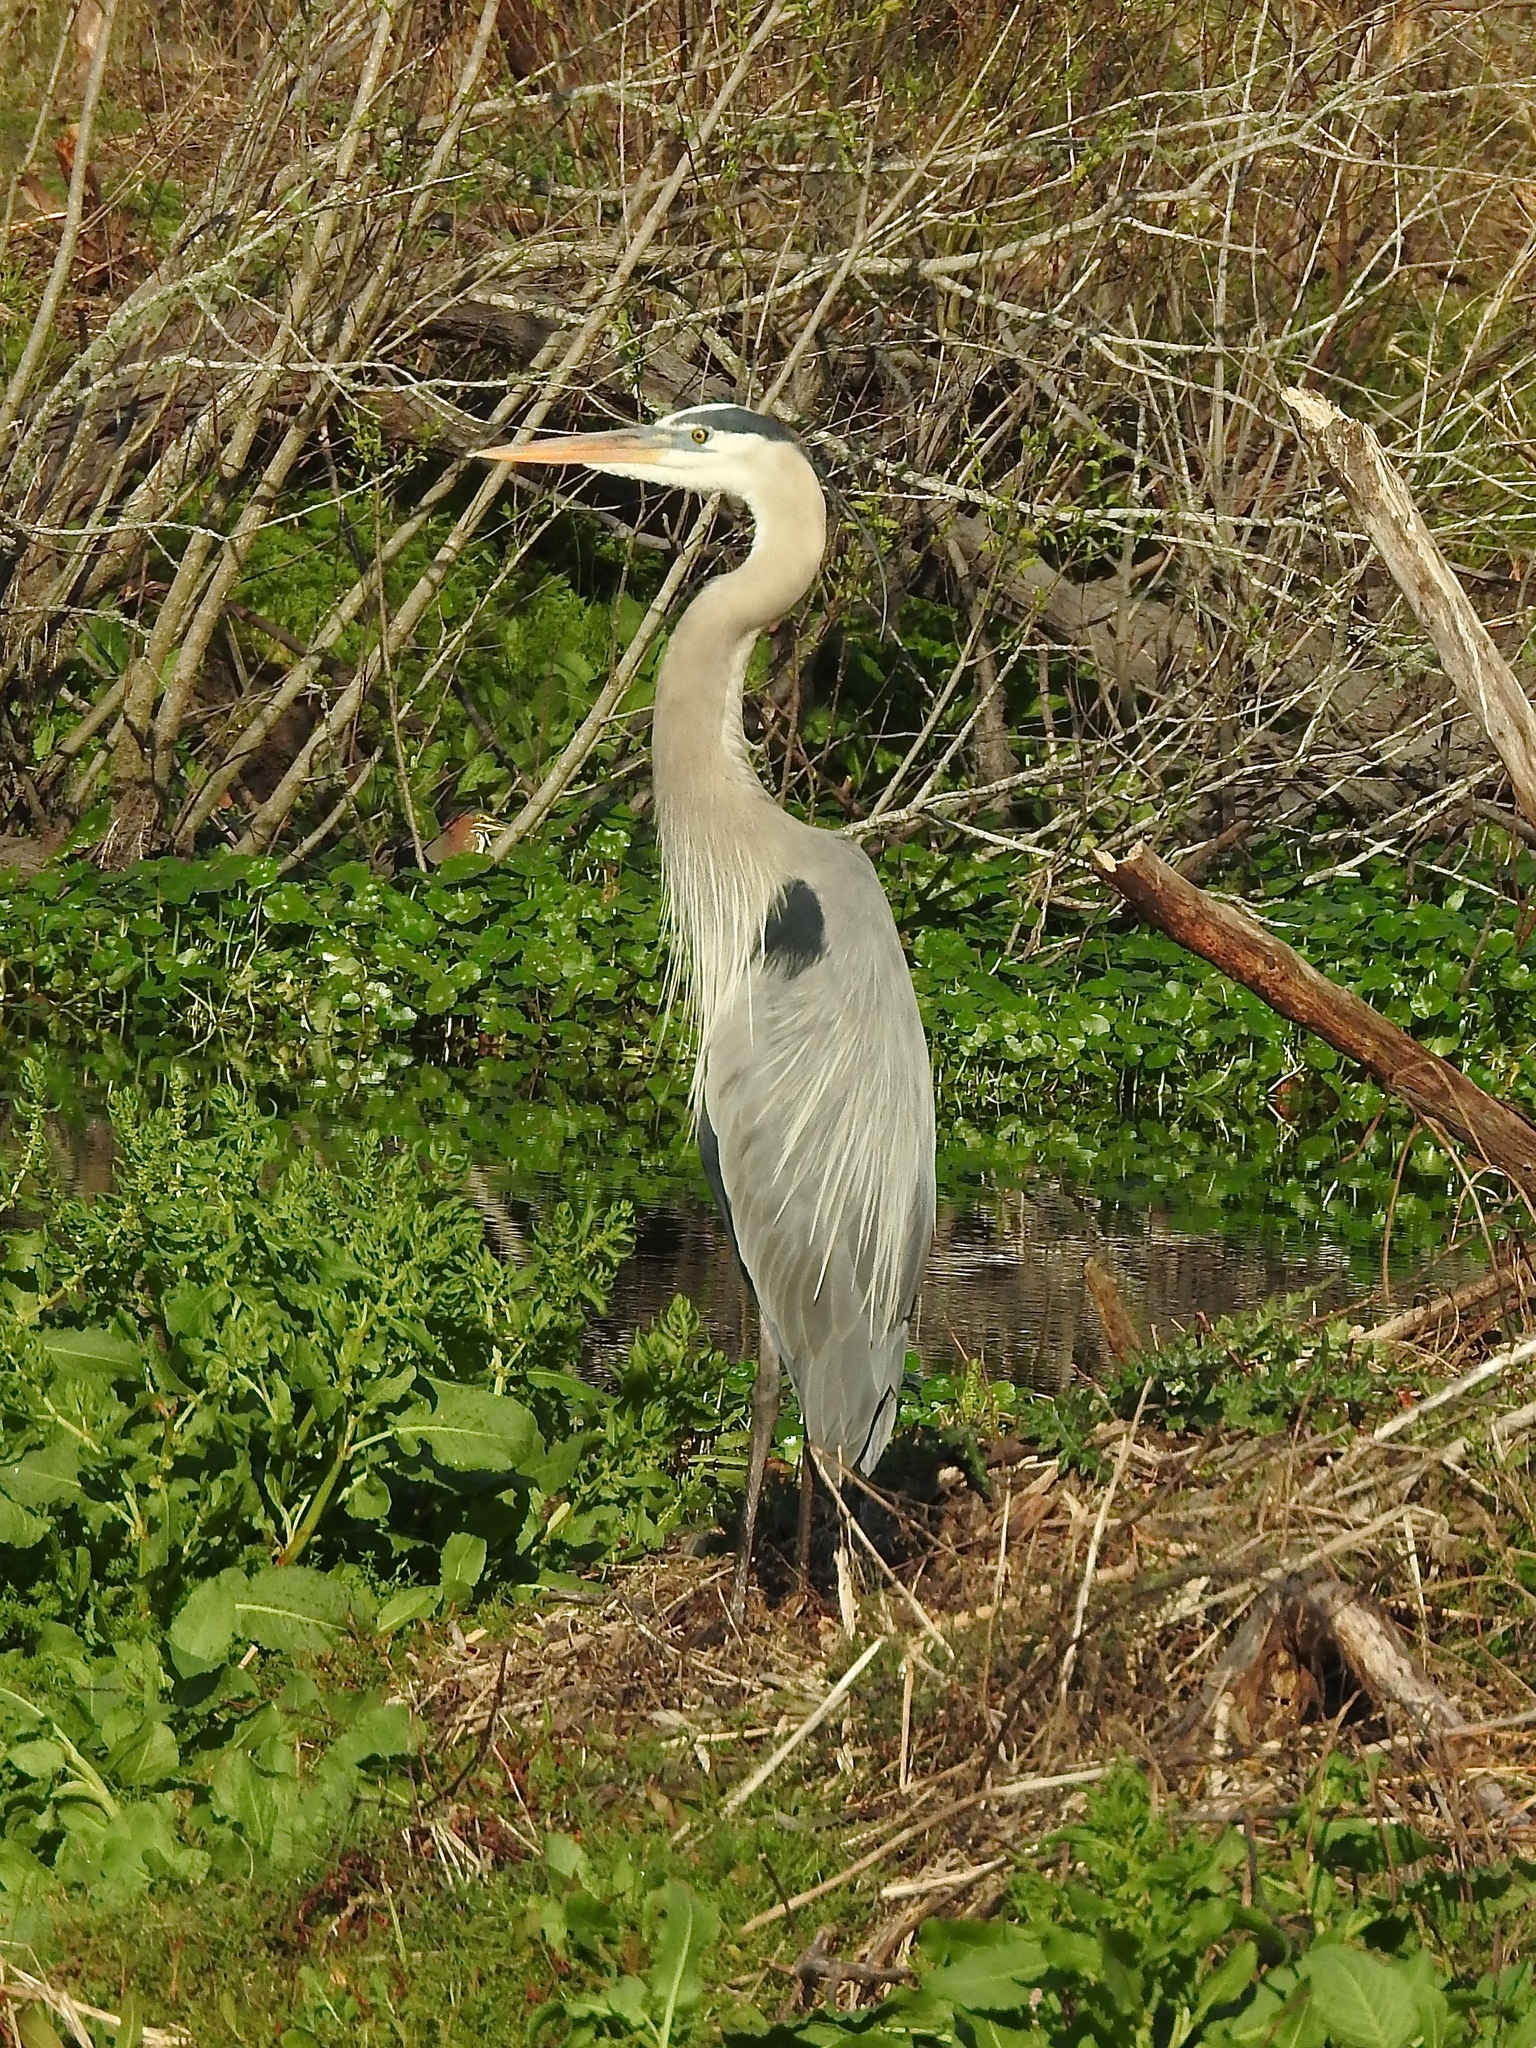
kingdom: Animalia
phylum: Chordata
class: Aves
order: Pelecaniformes
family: Ardeidae
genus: Ardea
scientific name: Ardea herodias
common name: Great blue heron
